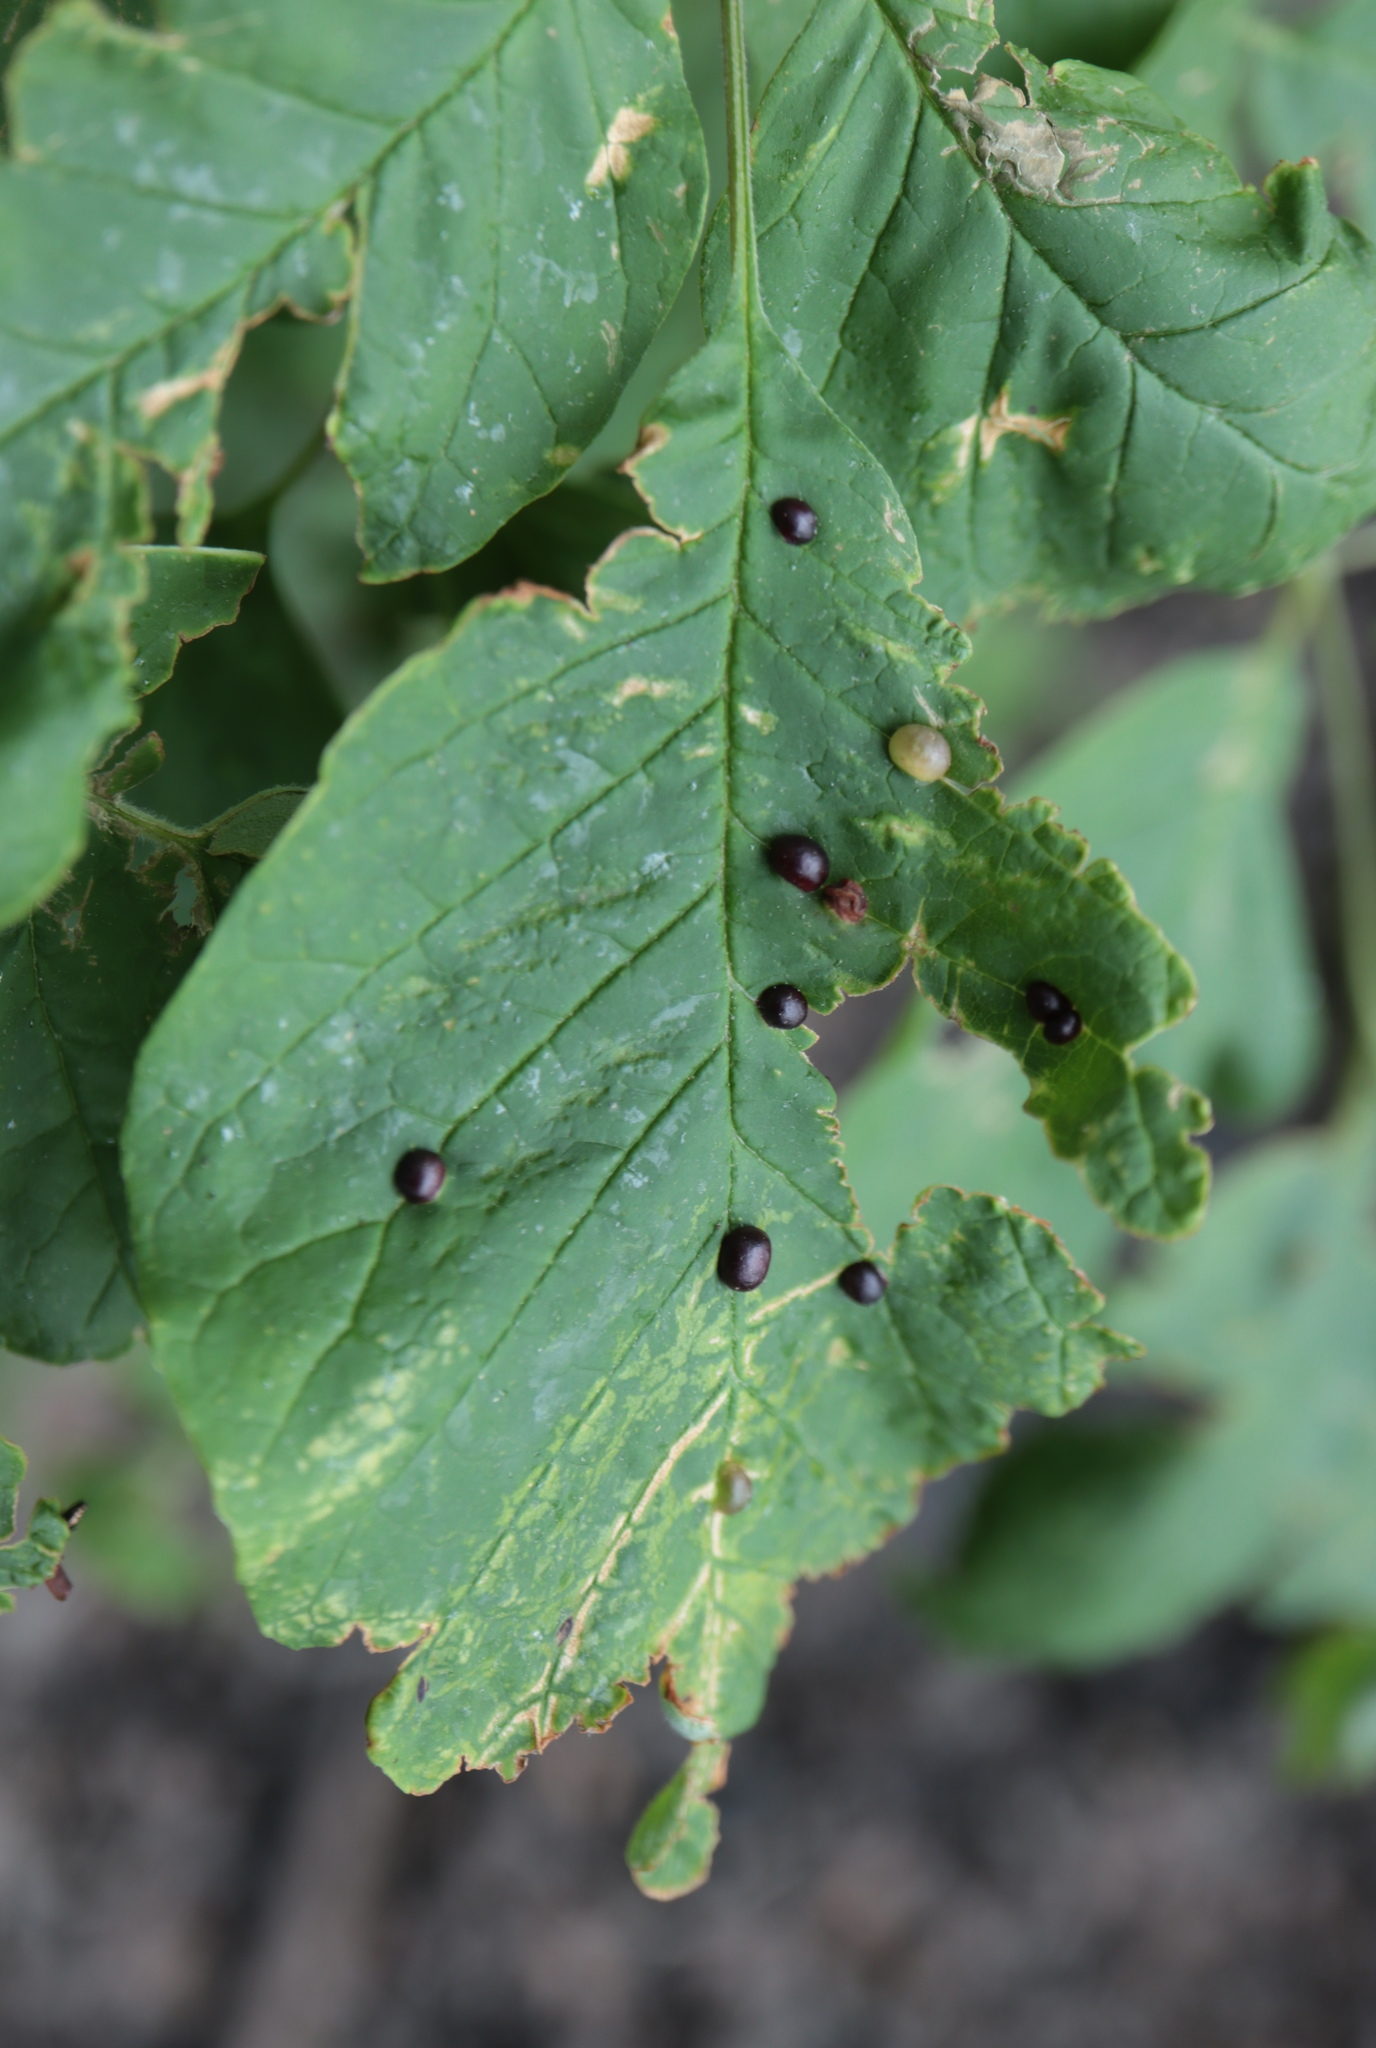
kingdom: Animalia
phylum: Arthropoda
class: Insecta
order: Diptera
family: Cecidomyiidae
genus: Dasineura
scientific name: Dasineura pellex
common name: Ash bullet gall midge
